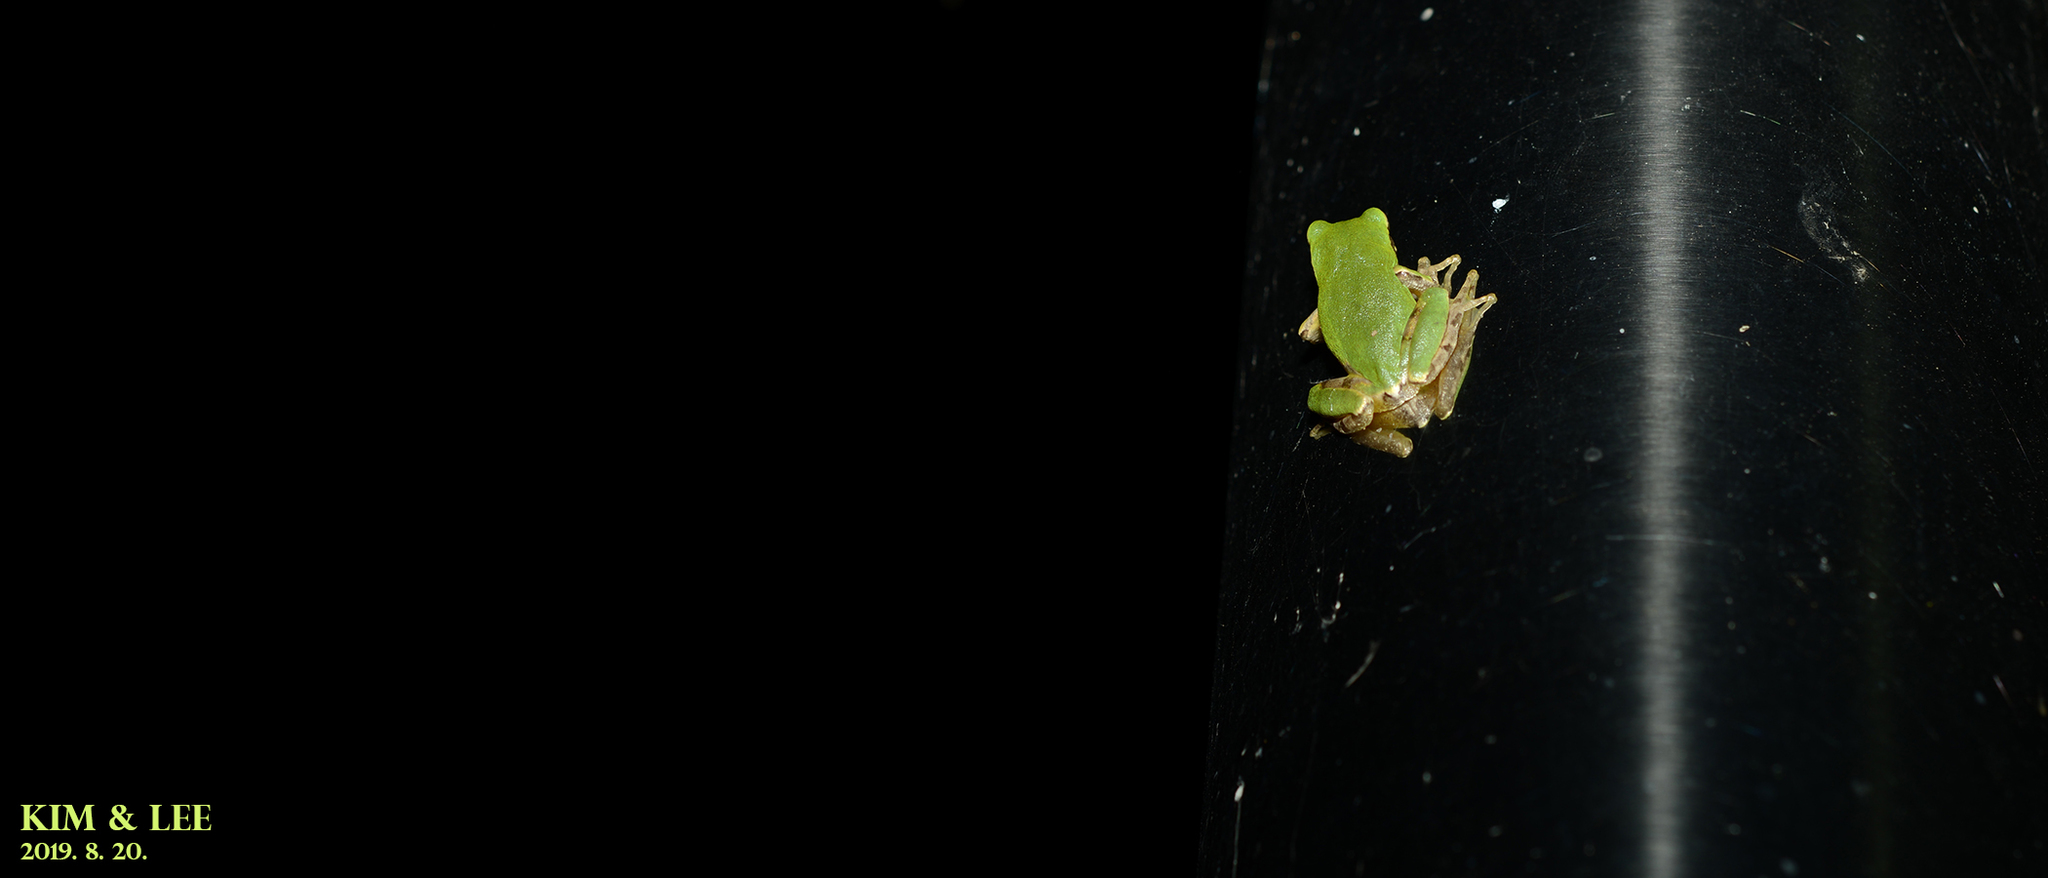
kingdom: Animalia
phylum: Chordata
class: Amphibia
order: Anura
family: Hylidae
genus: Dryophytes
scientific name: Dryophytes japonicus
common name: Japanese treefrog
